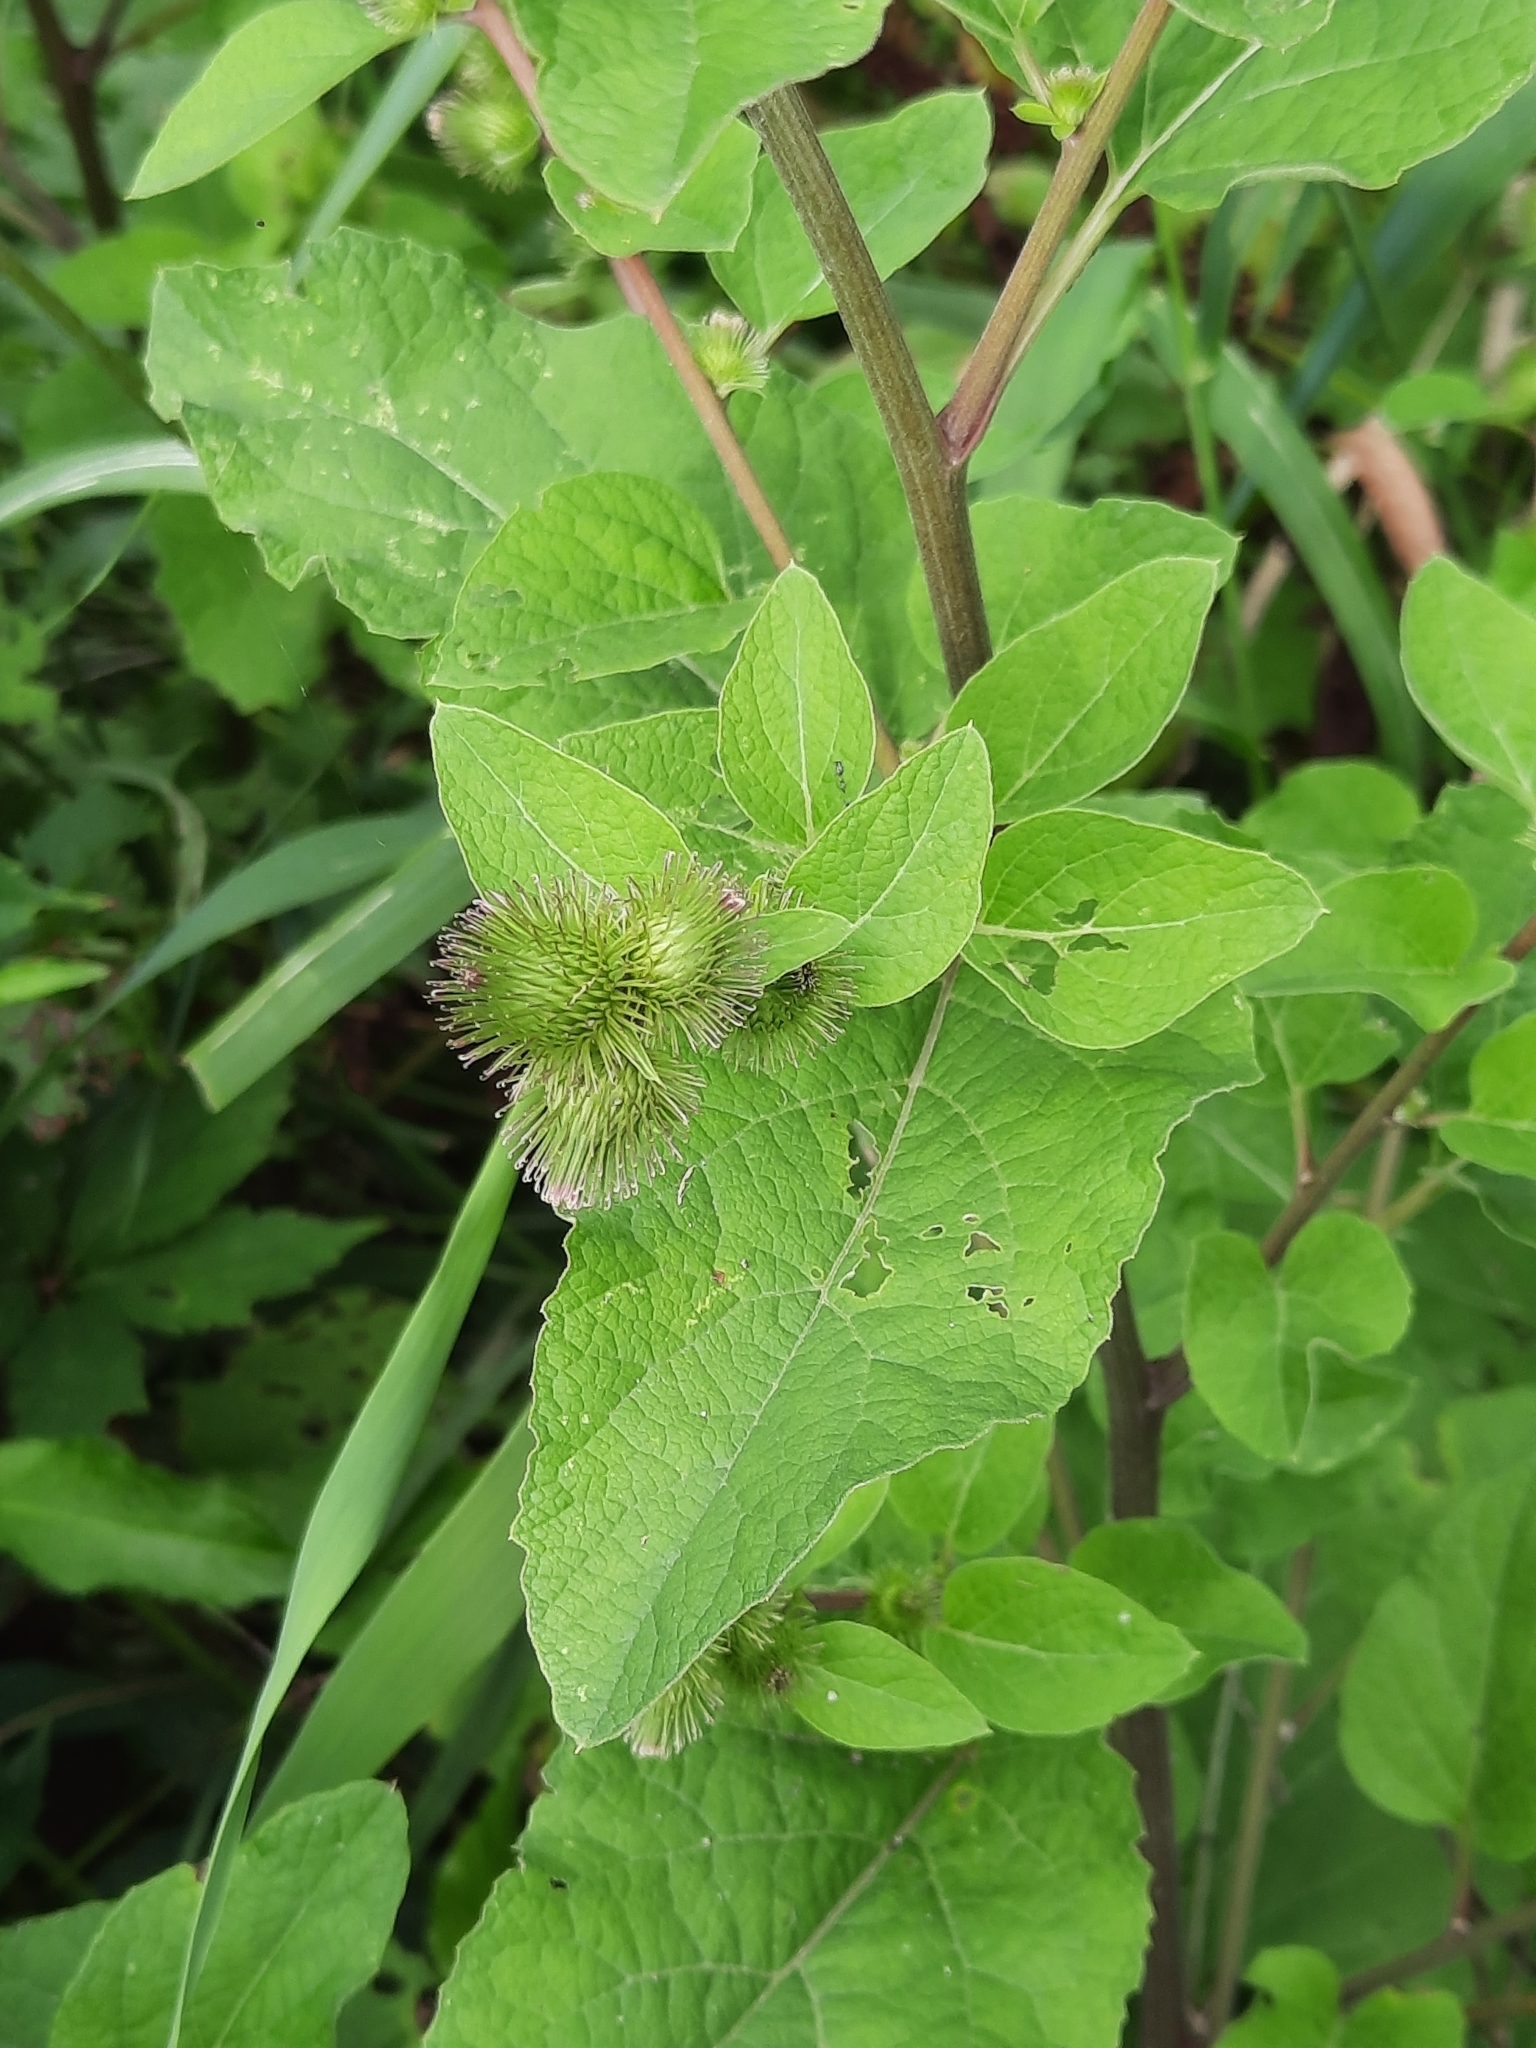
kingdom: Plantae
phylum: Tracheophyta
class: Magnoliopsida
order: Asterales
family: Asteraceae
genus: Arctium
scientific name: Arctium minus
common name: Lesser burdock
